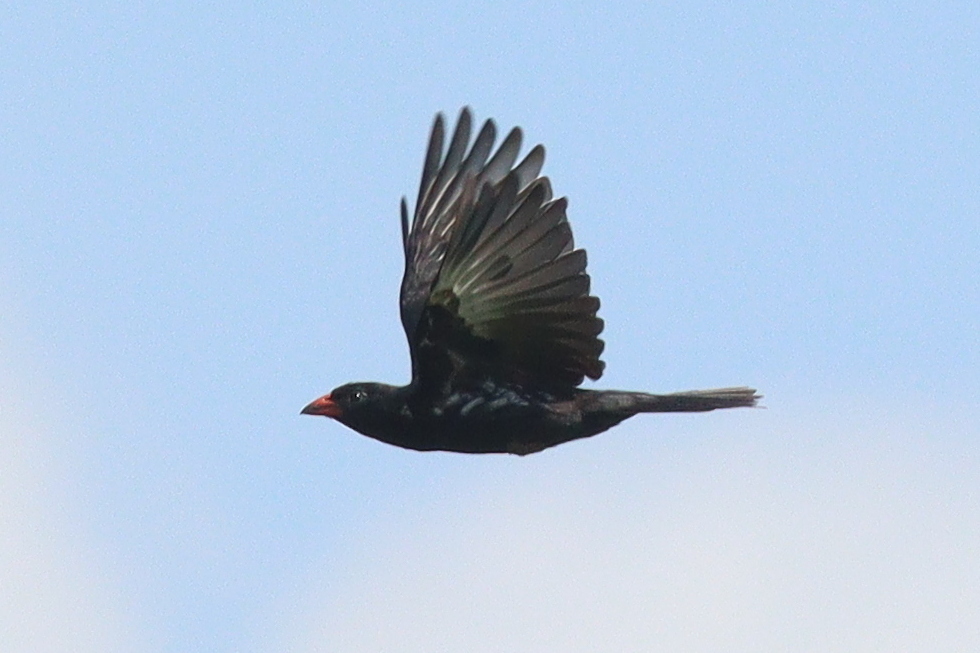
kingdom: Animalia
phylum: Chordata
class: Aves
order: Passeriformes
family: Ploceidae
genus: Bubalornis
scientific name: Bubalornis niger
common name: Red-billed buffalo weaver
